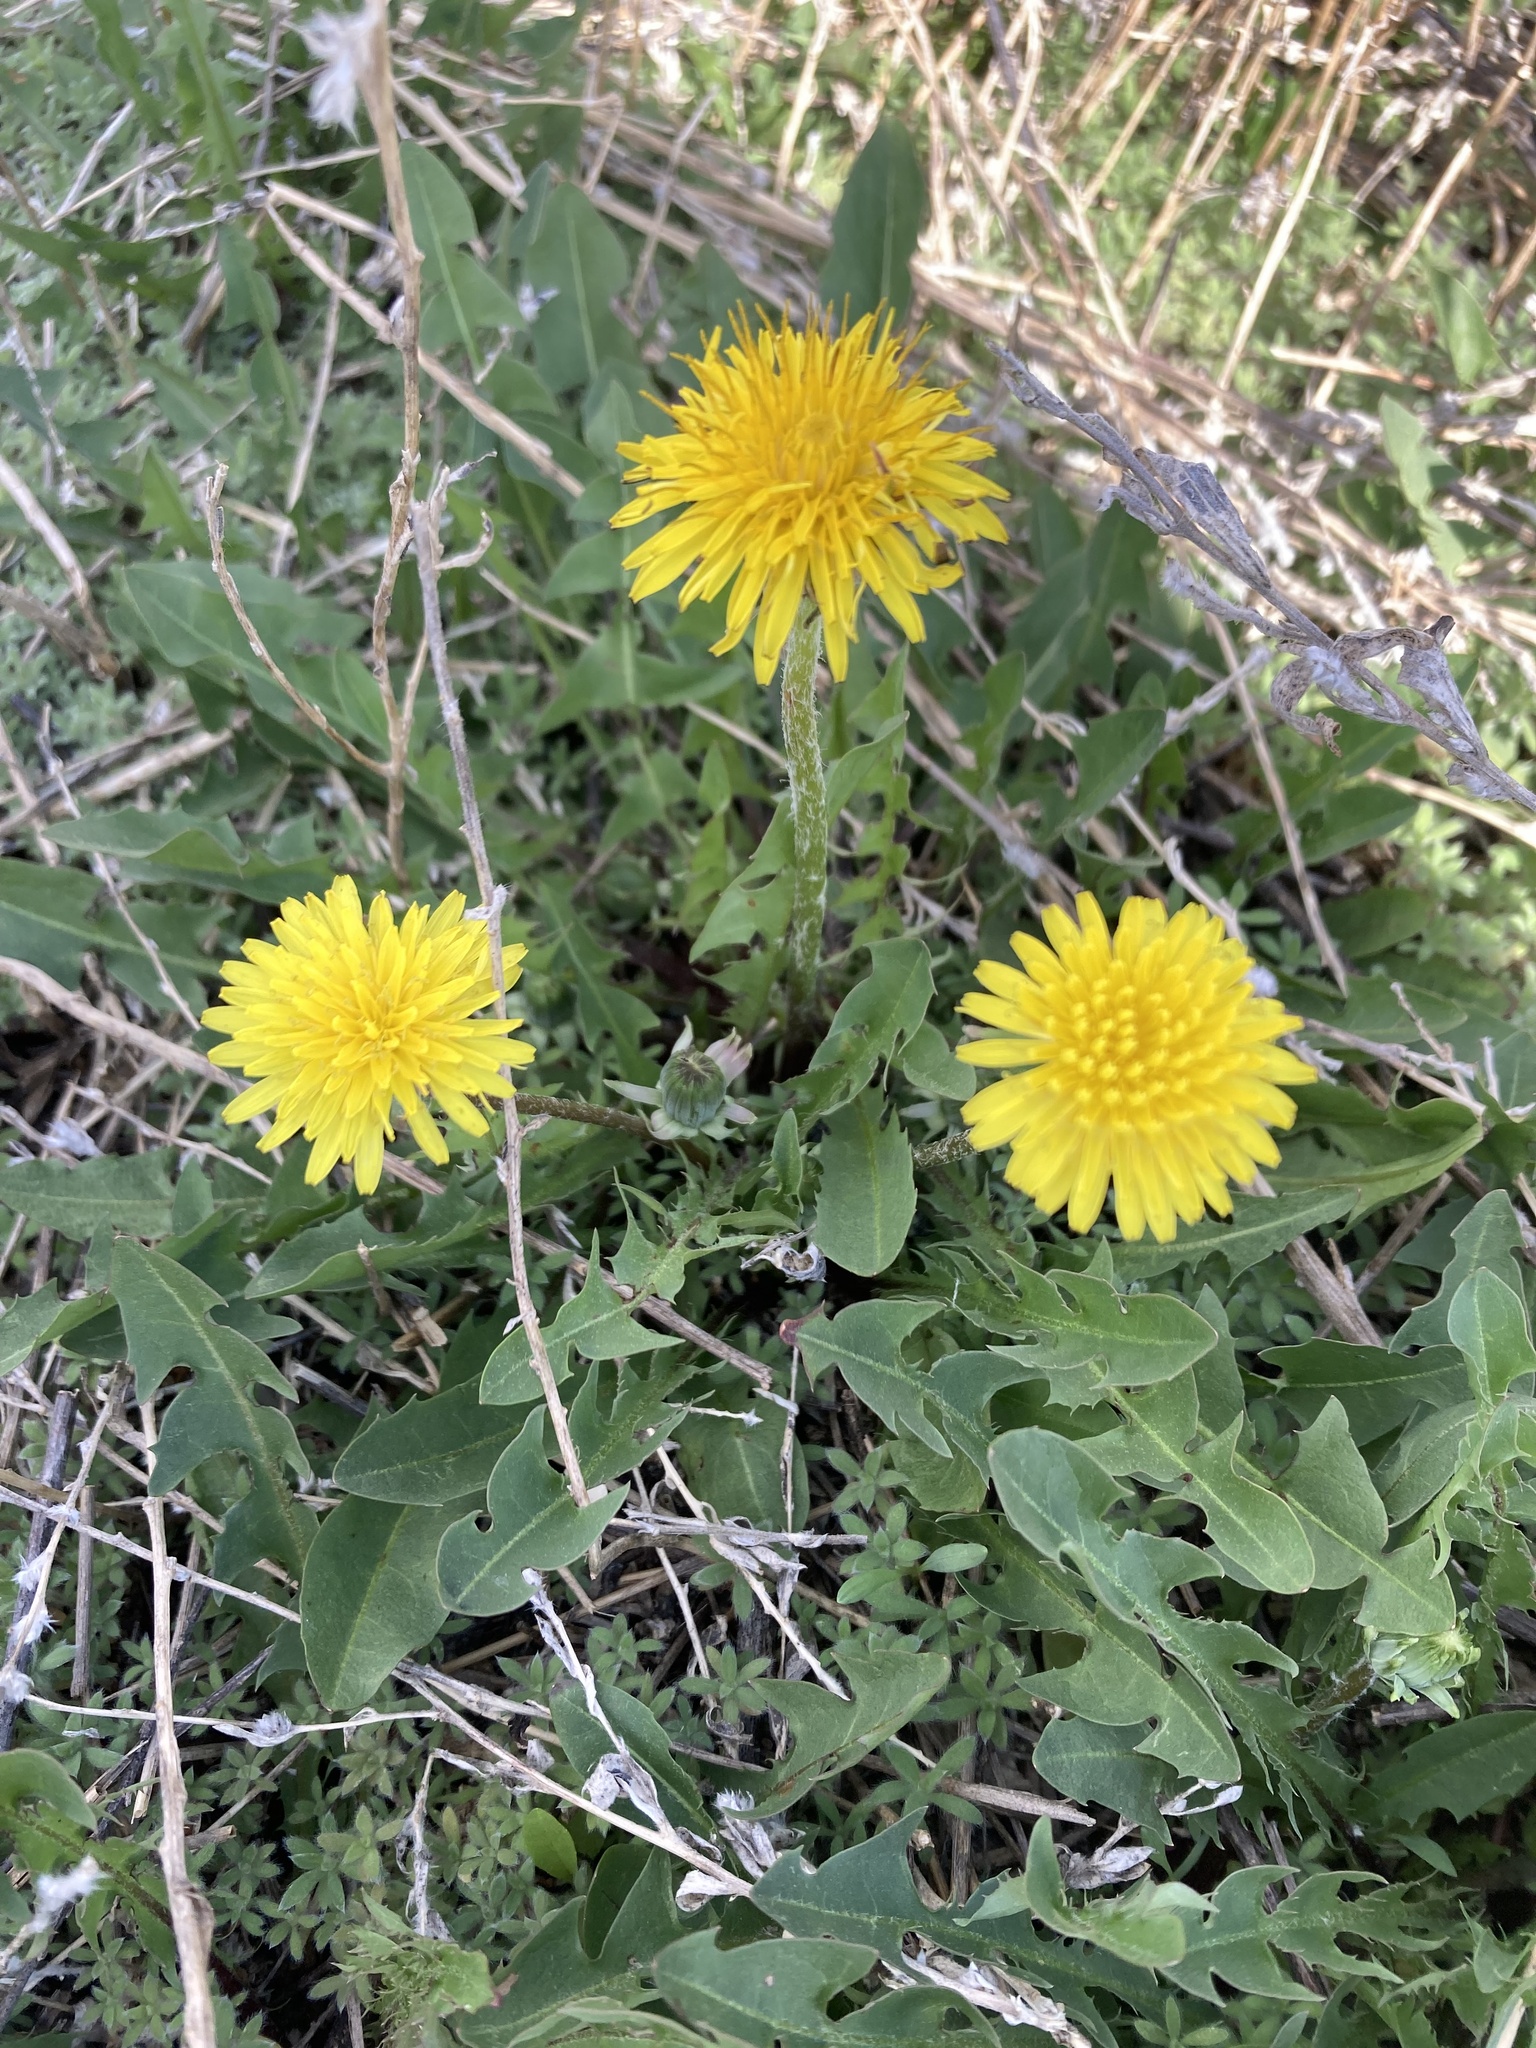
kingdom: Plantae
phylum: Tracheophyta
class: Magnoliopsida
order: Asterales
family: Asteraceae
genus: Taraxacum
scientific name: Taraxacum officinale
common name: Common dandelion
